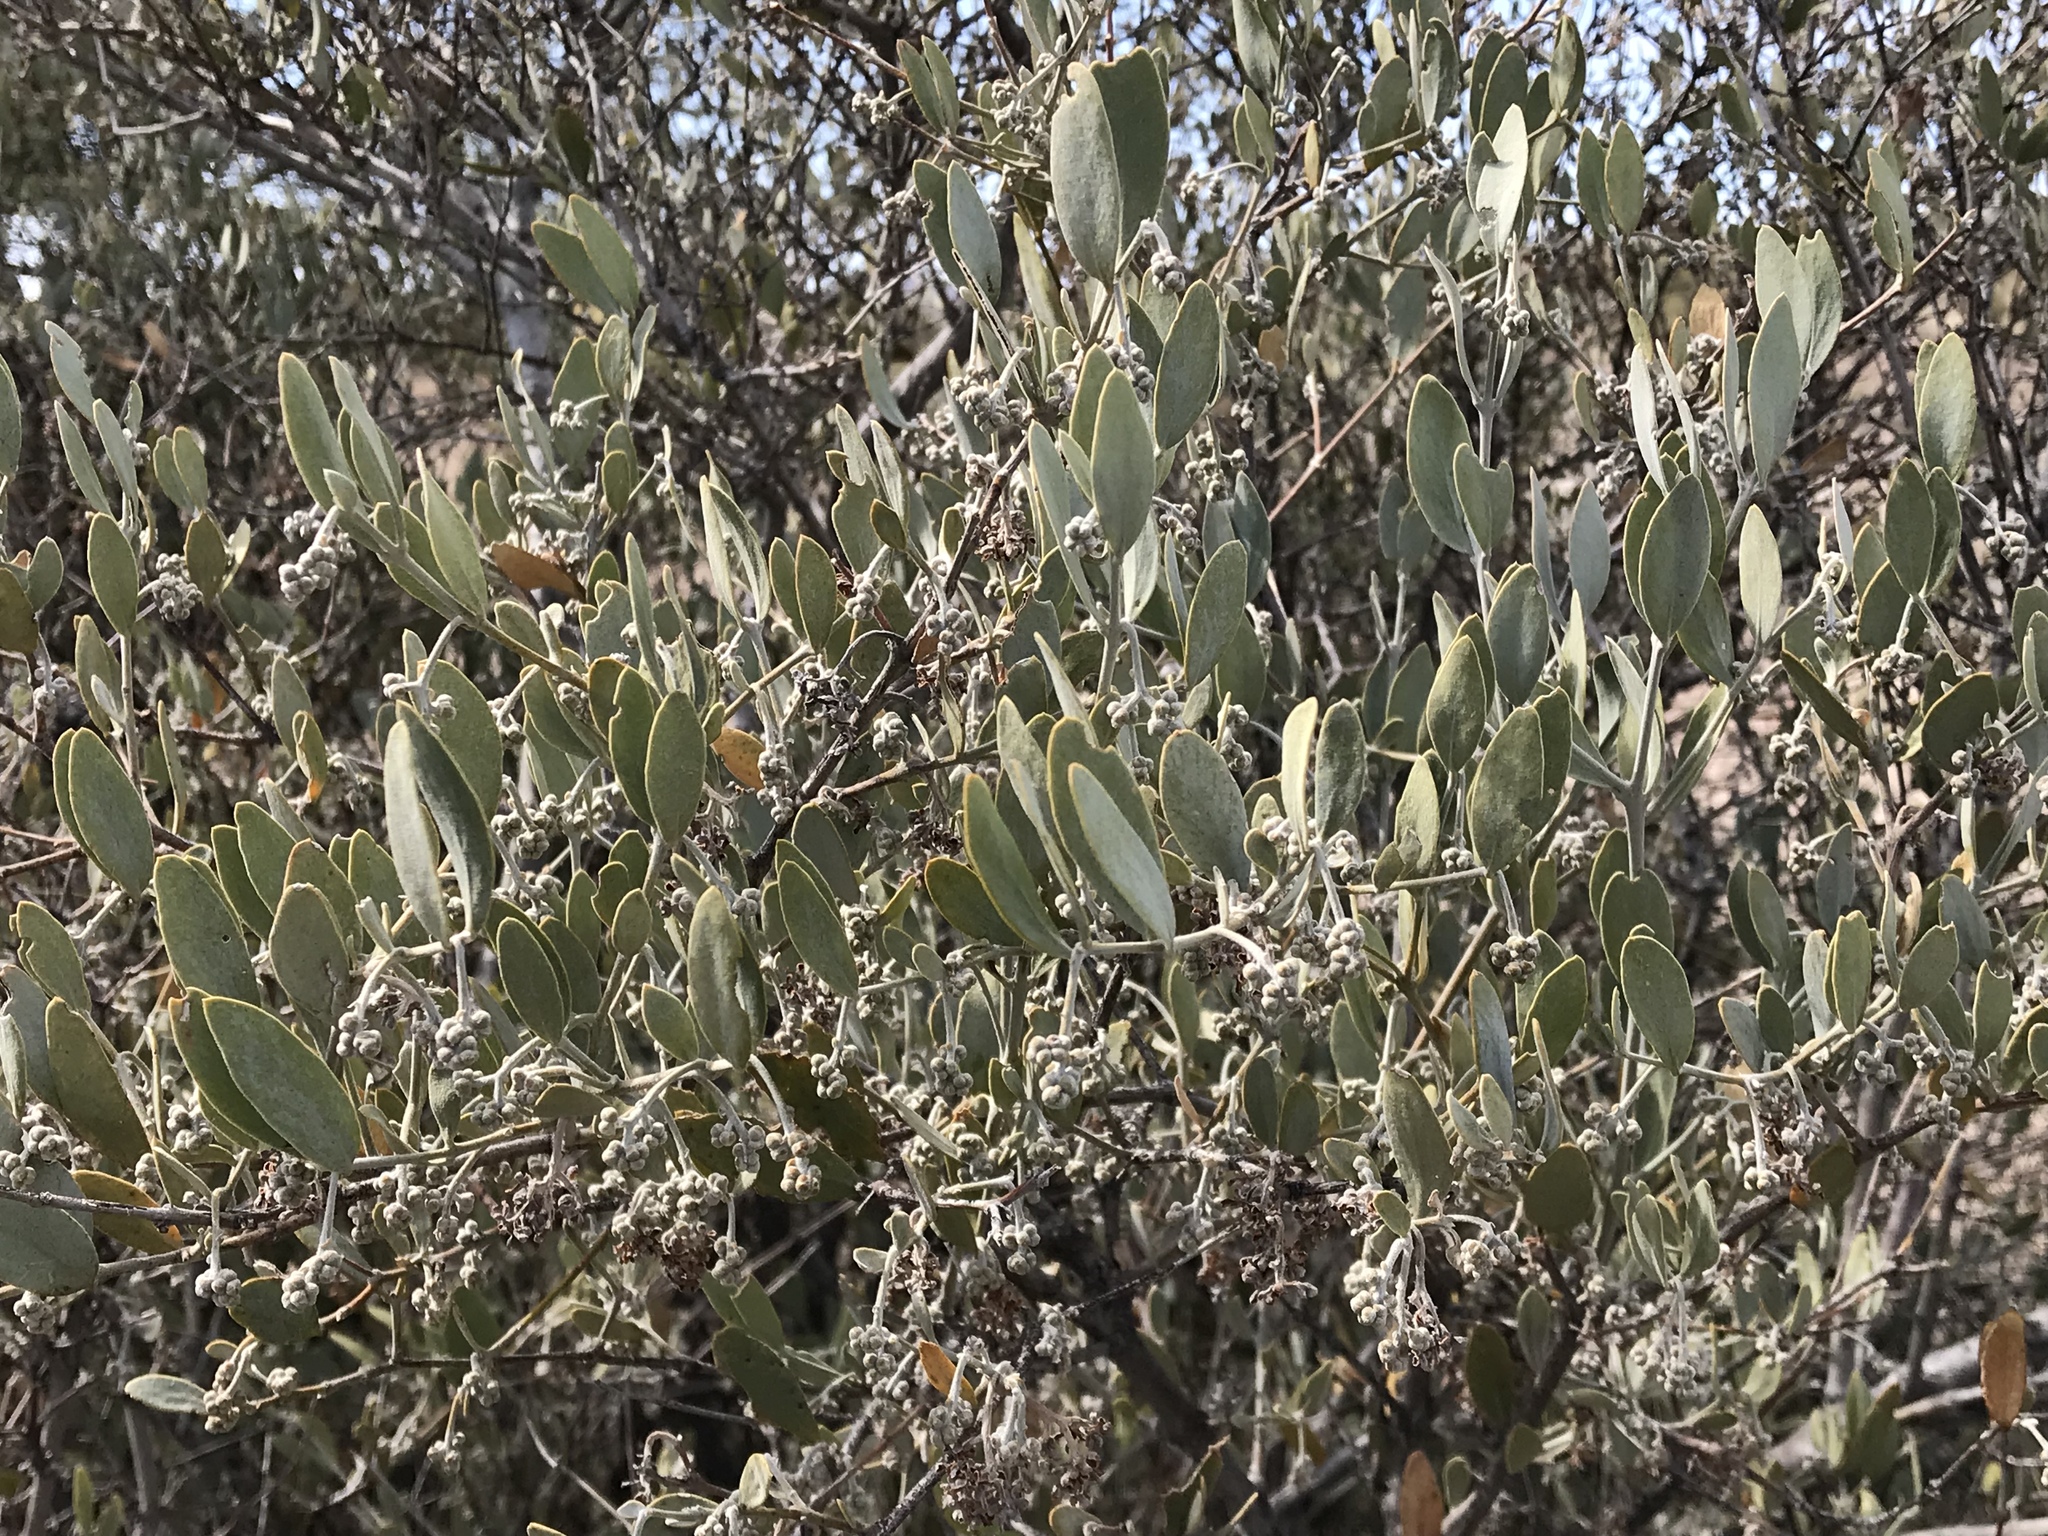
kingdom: Plantae
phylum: Tracheophyta
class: Magnoliopsida
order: Caryophyllales
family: Simmondsiaceae
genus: Simmondsia
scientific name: Simmondsia chinensis
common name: Jojoba
